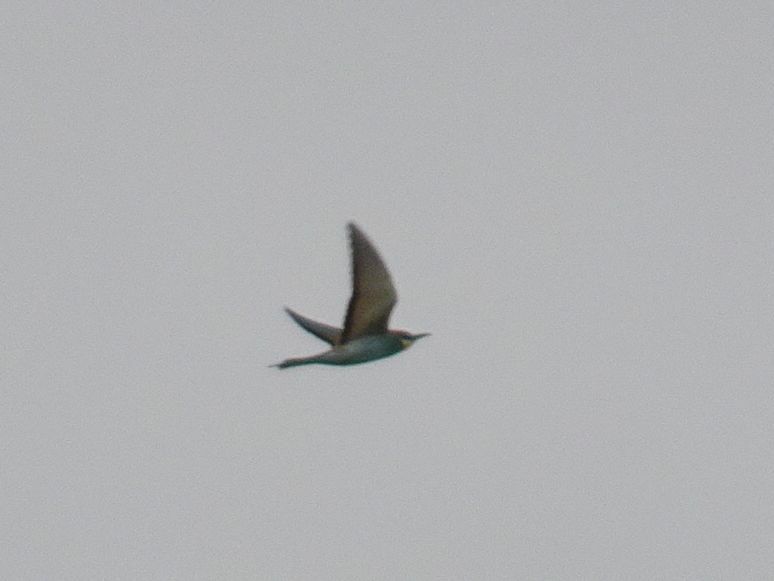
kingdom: Animalia
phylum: Chordata
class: Aves
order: Coraciiformes
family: Meropidae
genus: Merops
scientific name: Merops apiaster
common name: European bee-eater
